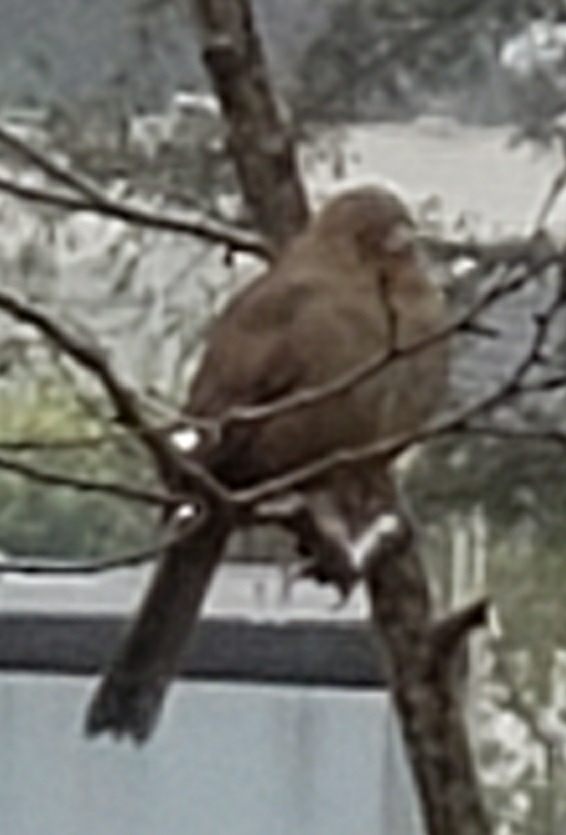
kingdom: Animalia
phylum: Chordata
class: Aves
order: Passeriformes
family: Passerellidae
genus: Melozone
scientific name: Melozone crissalis
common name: California towhee
